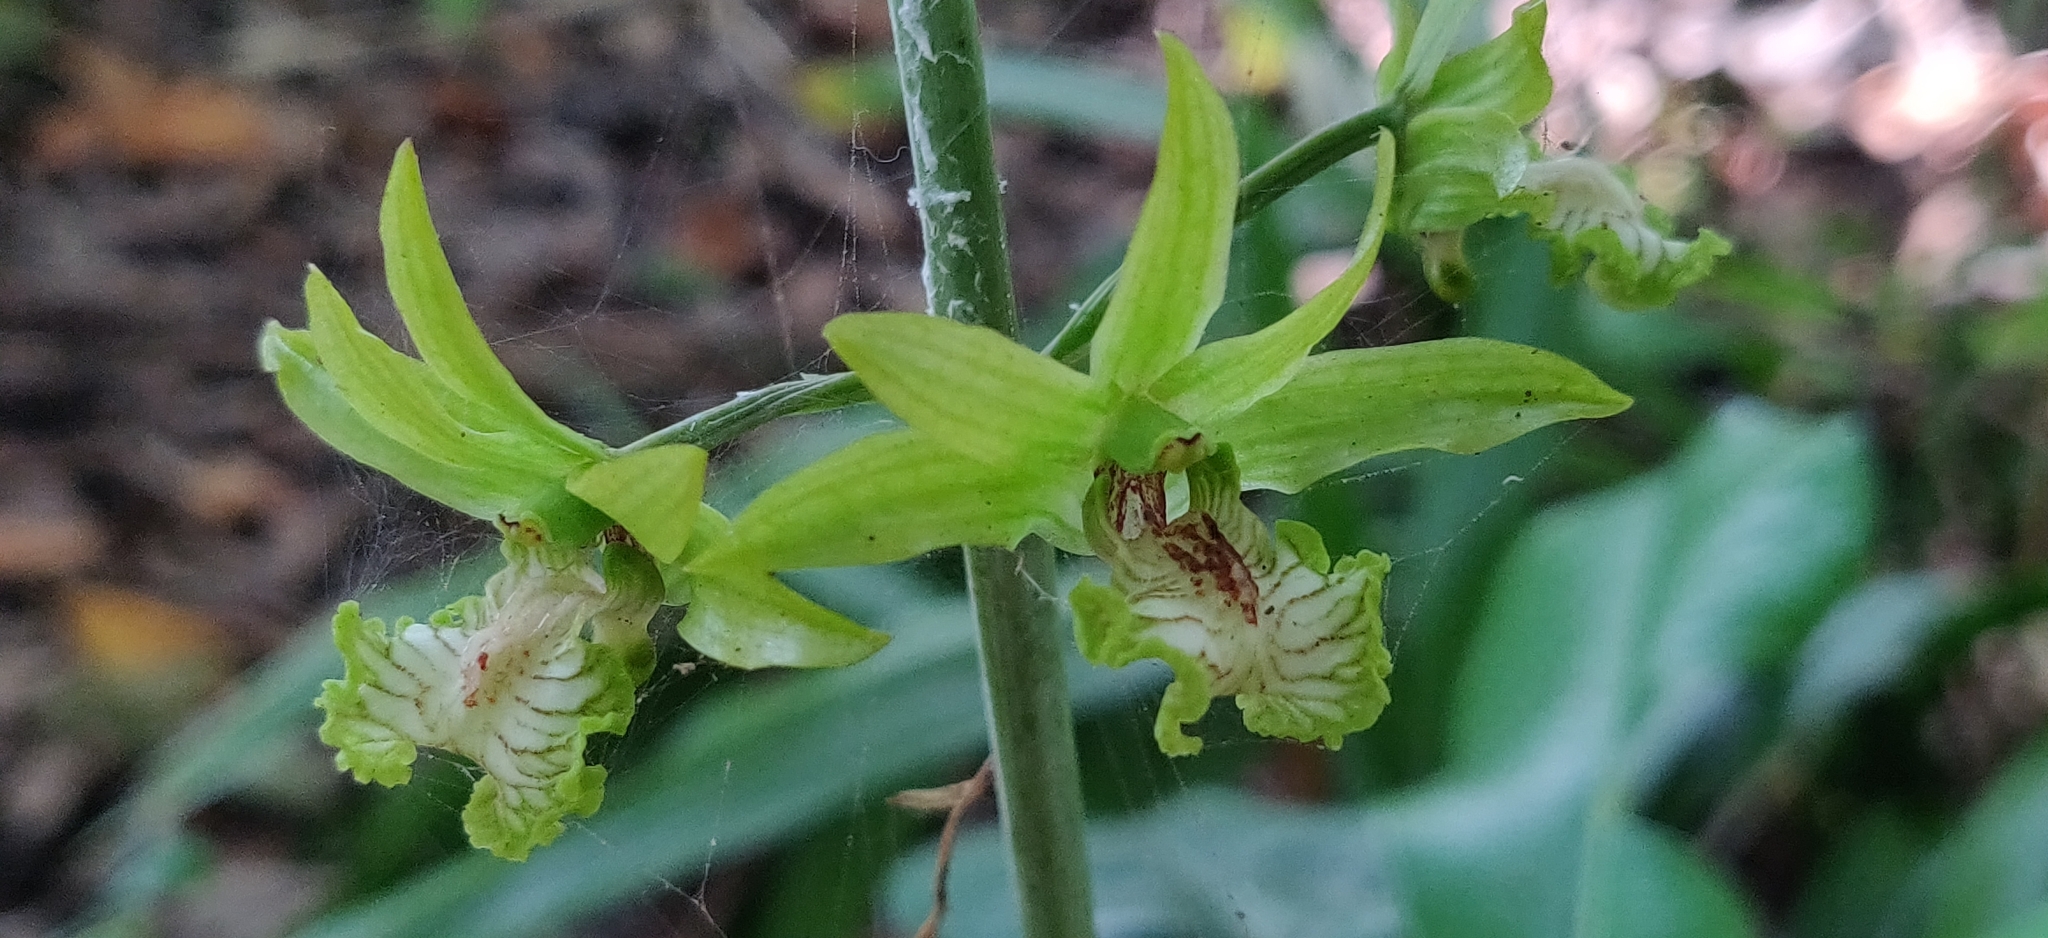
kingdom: Plantae
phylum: Tracheophyta
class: Liliopsida
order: Asparagales
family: Orchidaceae
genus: Eulophia
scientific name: Eulophia andamanensis
